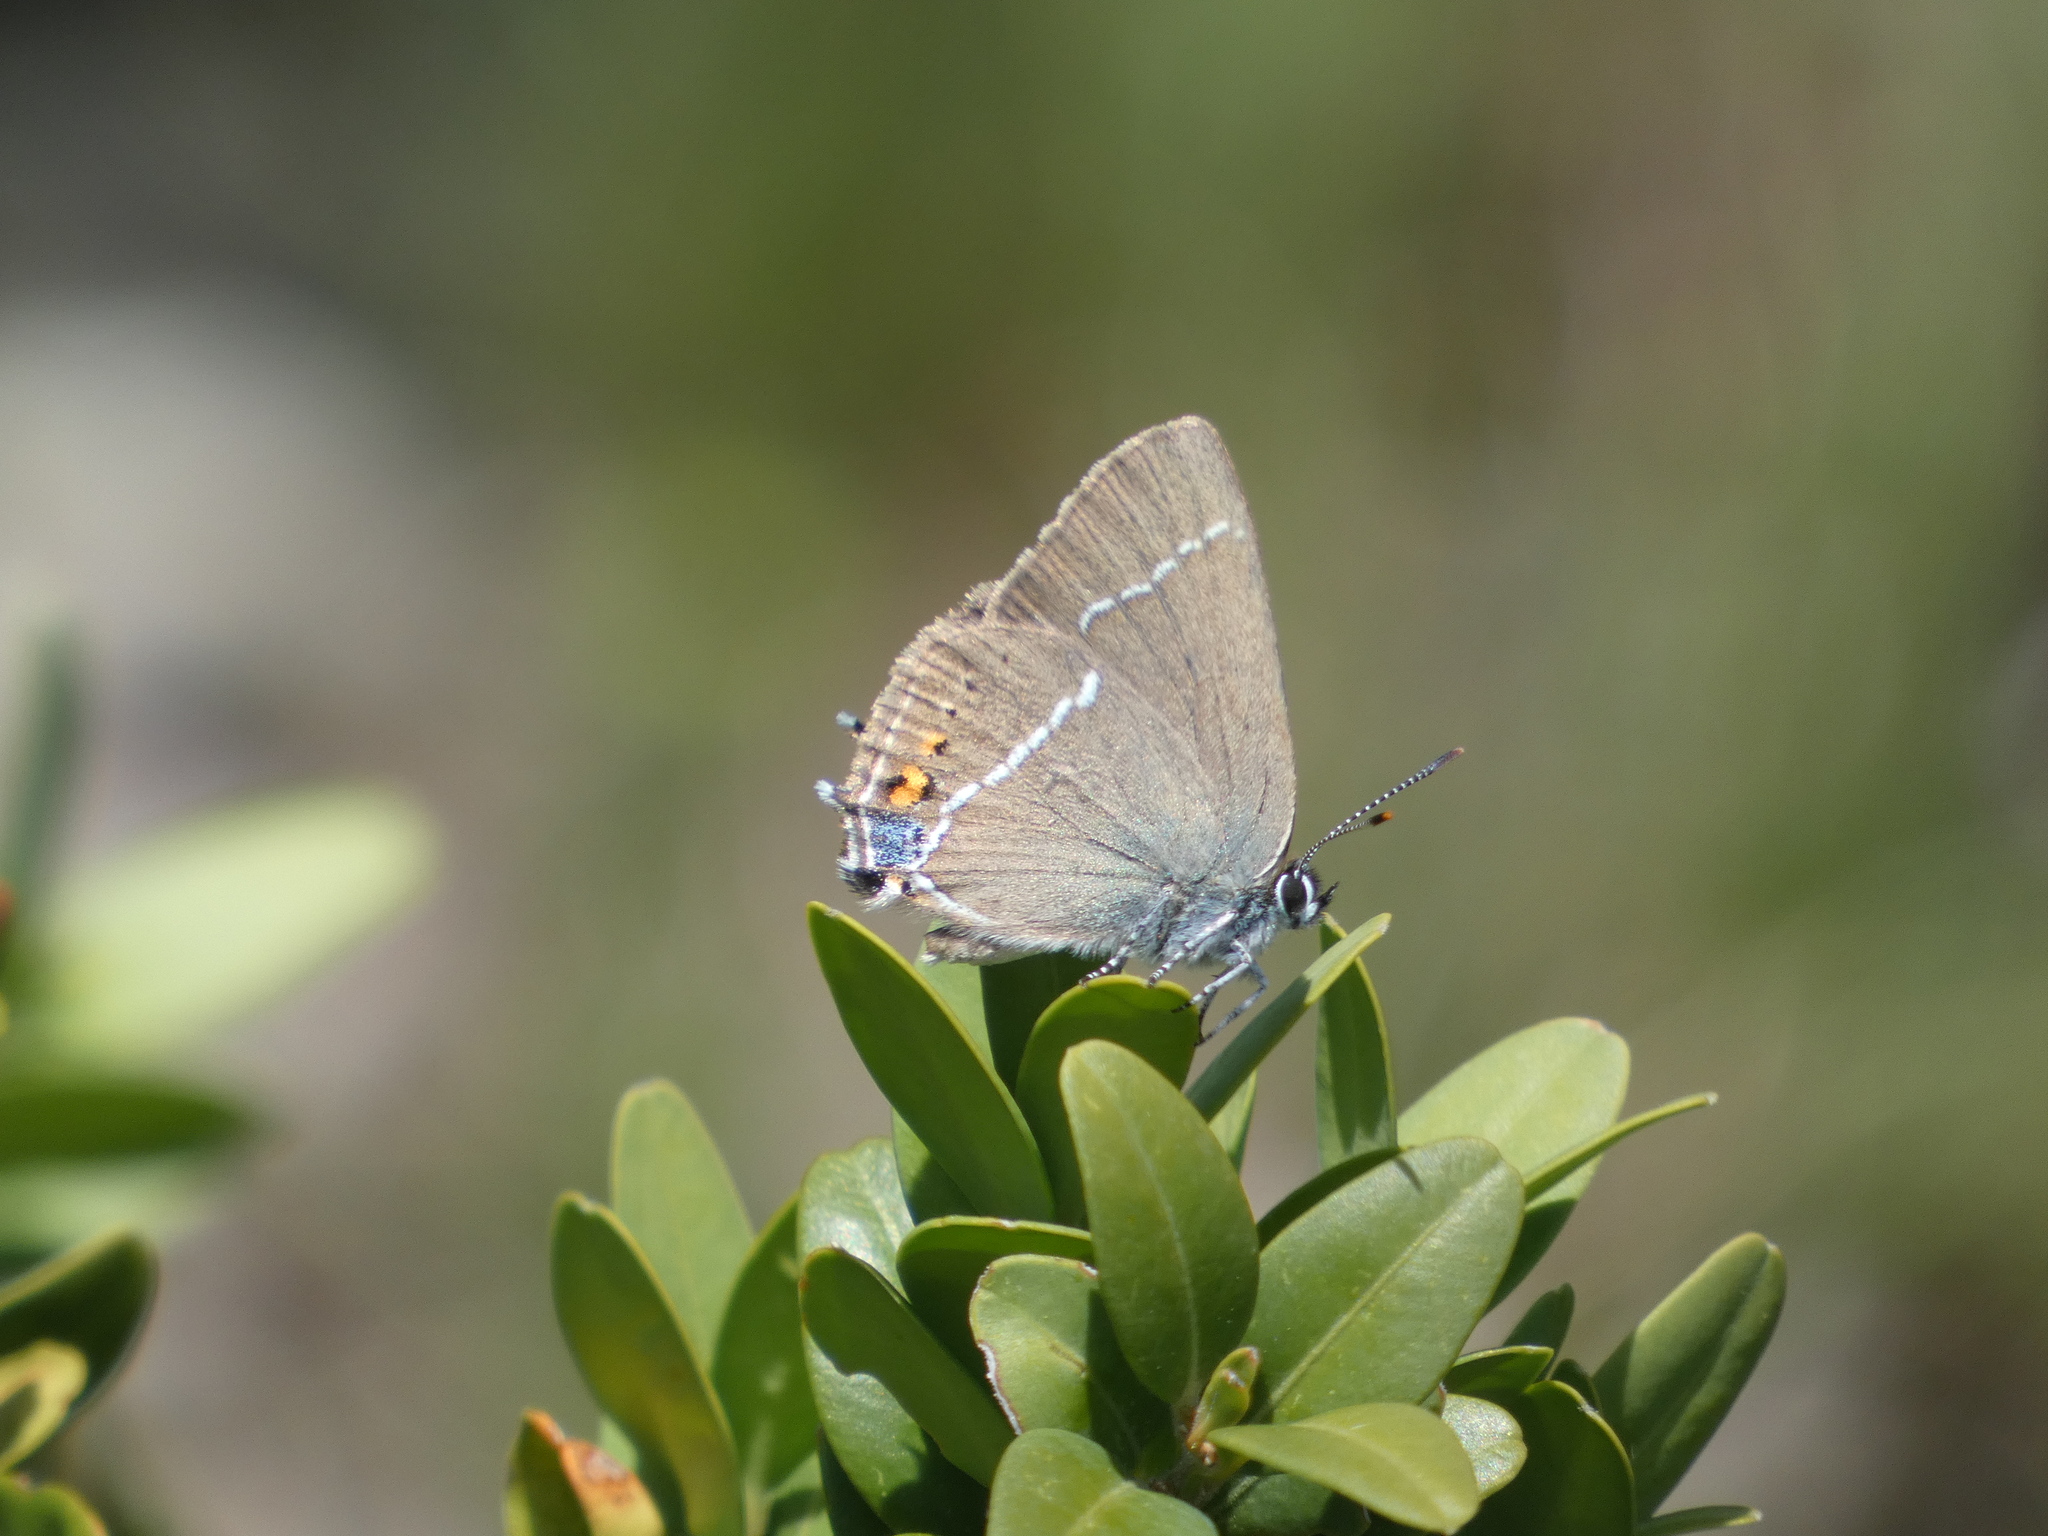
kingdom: Animalia
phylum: Arthropoda
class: Insecta
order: Lepidoptera
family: Lycaenidae
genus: Tuttiola
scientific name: Tuttiola spini
